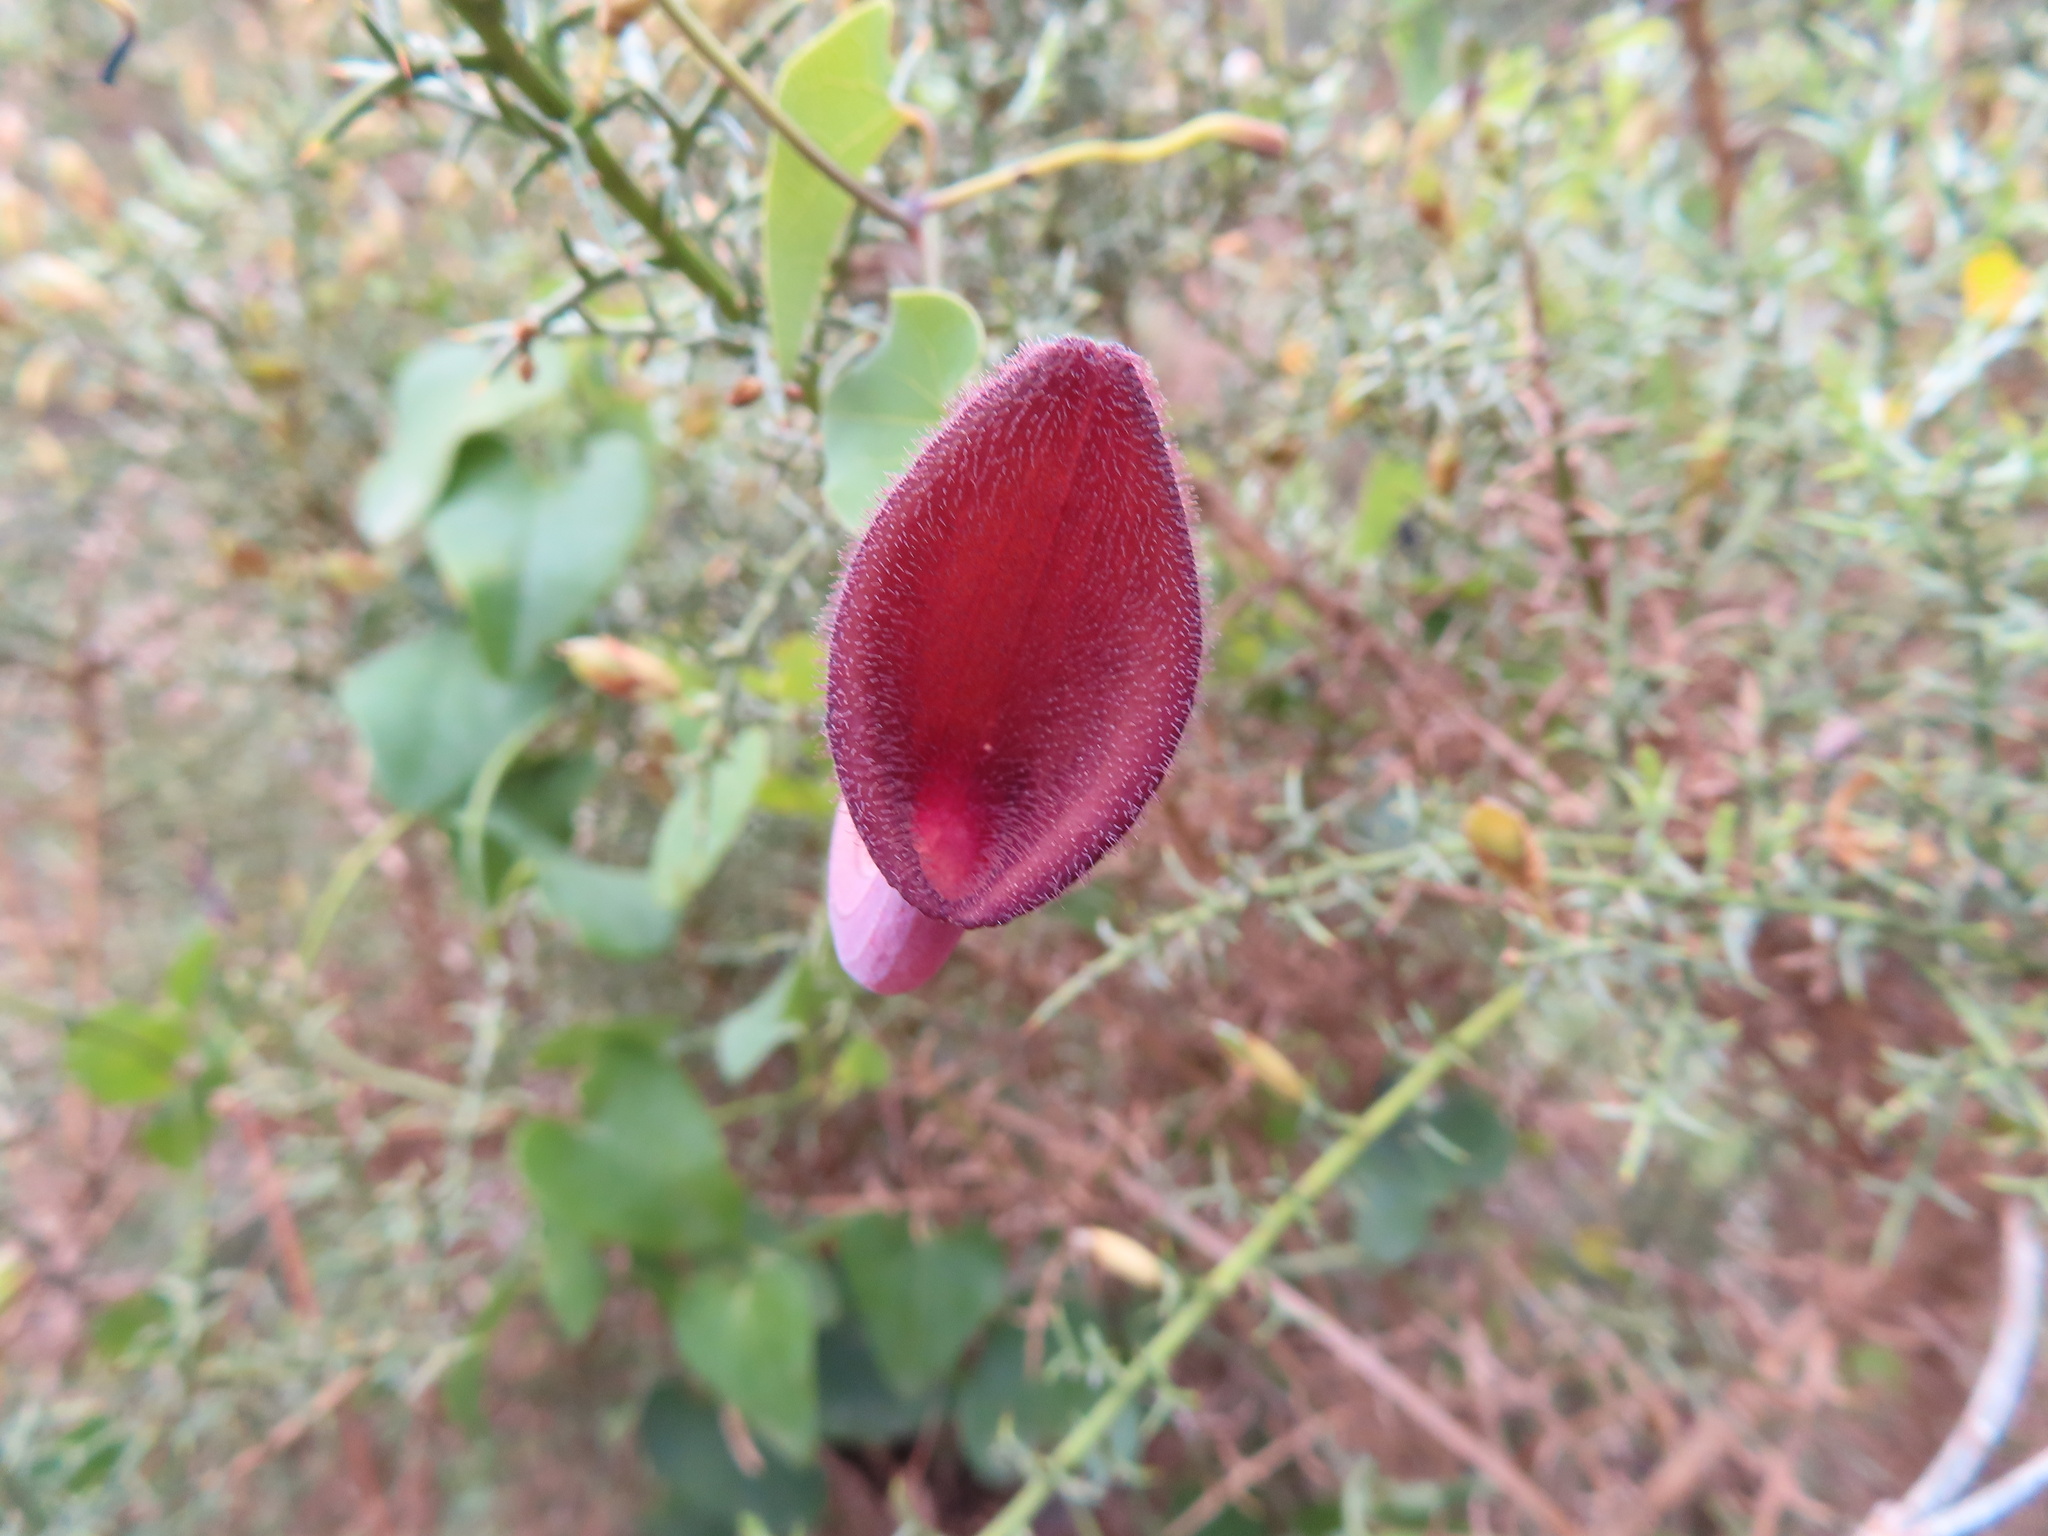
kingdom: Plantae
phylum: Tracheophyta
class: Magnoliopsida
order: Piperales
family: Aristolochiaceae
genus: Aristolochia
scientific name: Aristolochia baetica
